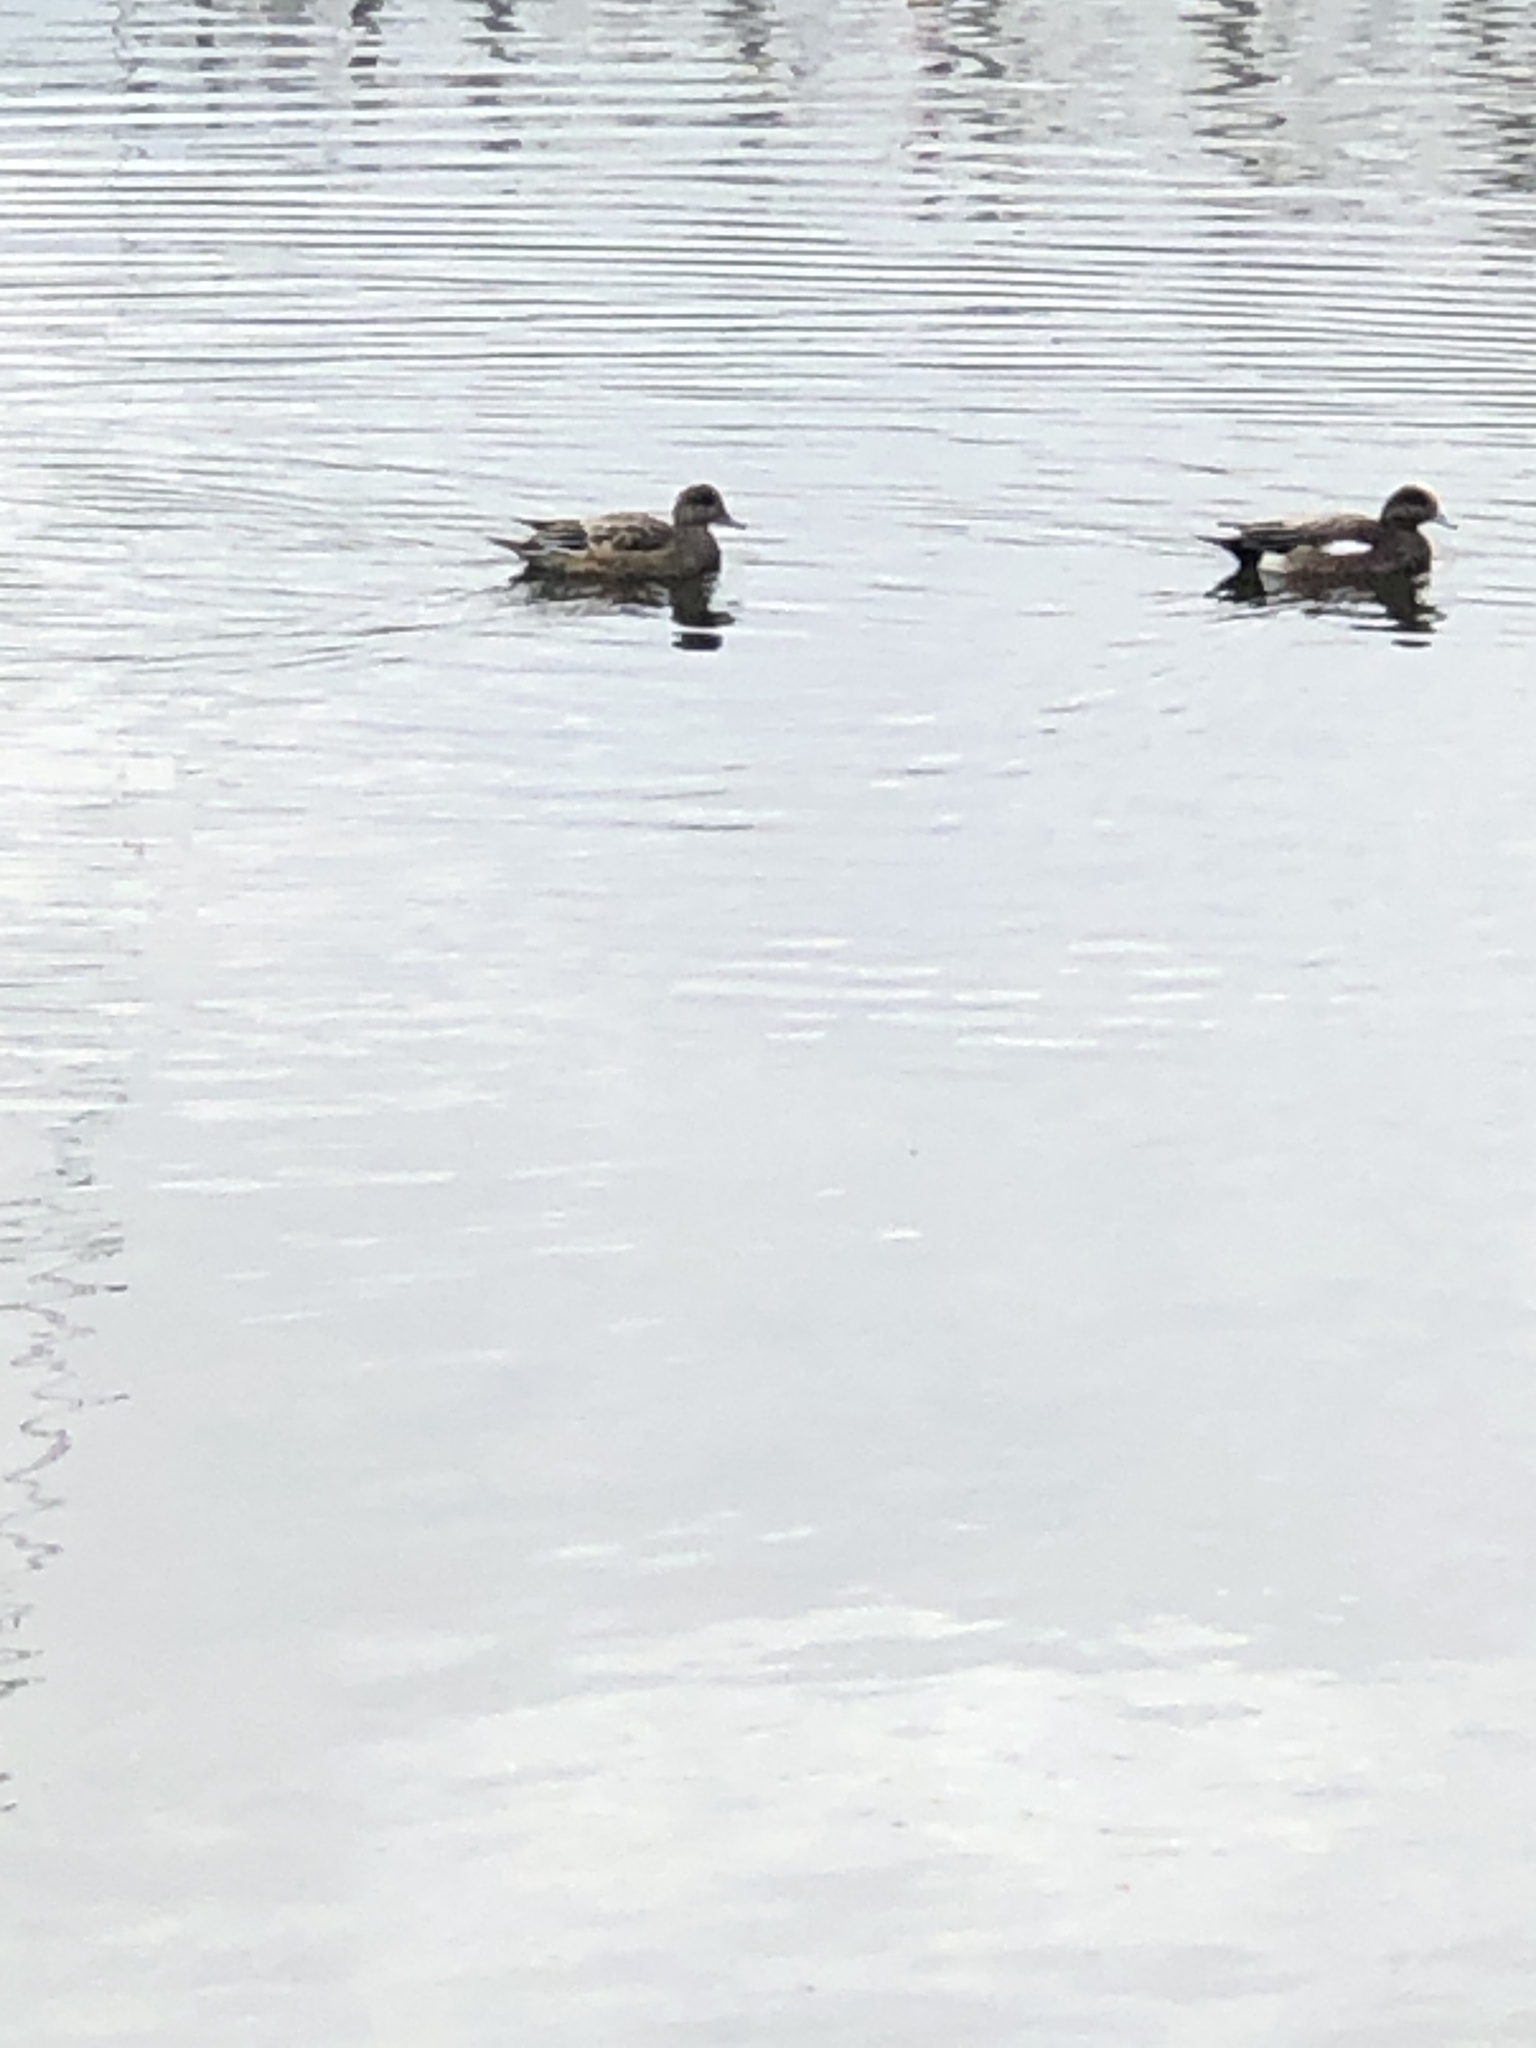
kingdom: Animalia
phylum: Chordata
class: Aves
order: Anseriformes
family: Anatidae
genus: Mareca
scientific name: Mareca americana
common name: American wigeon
